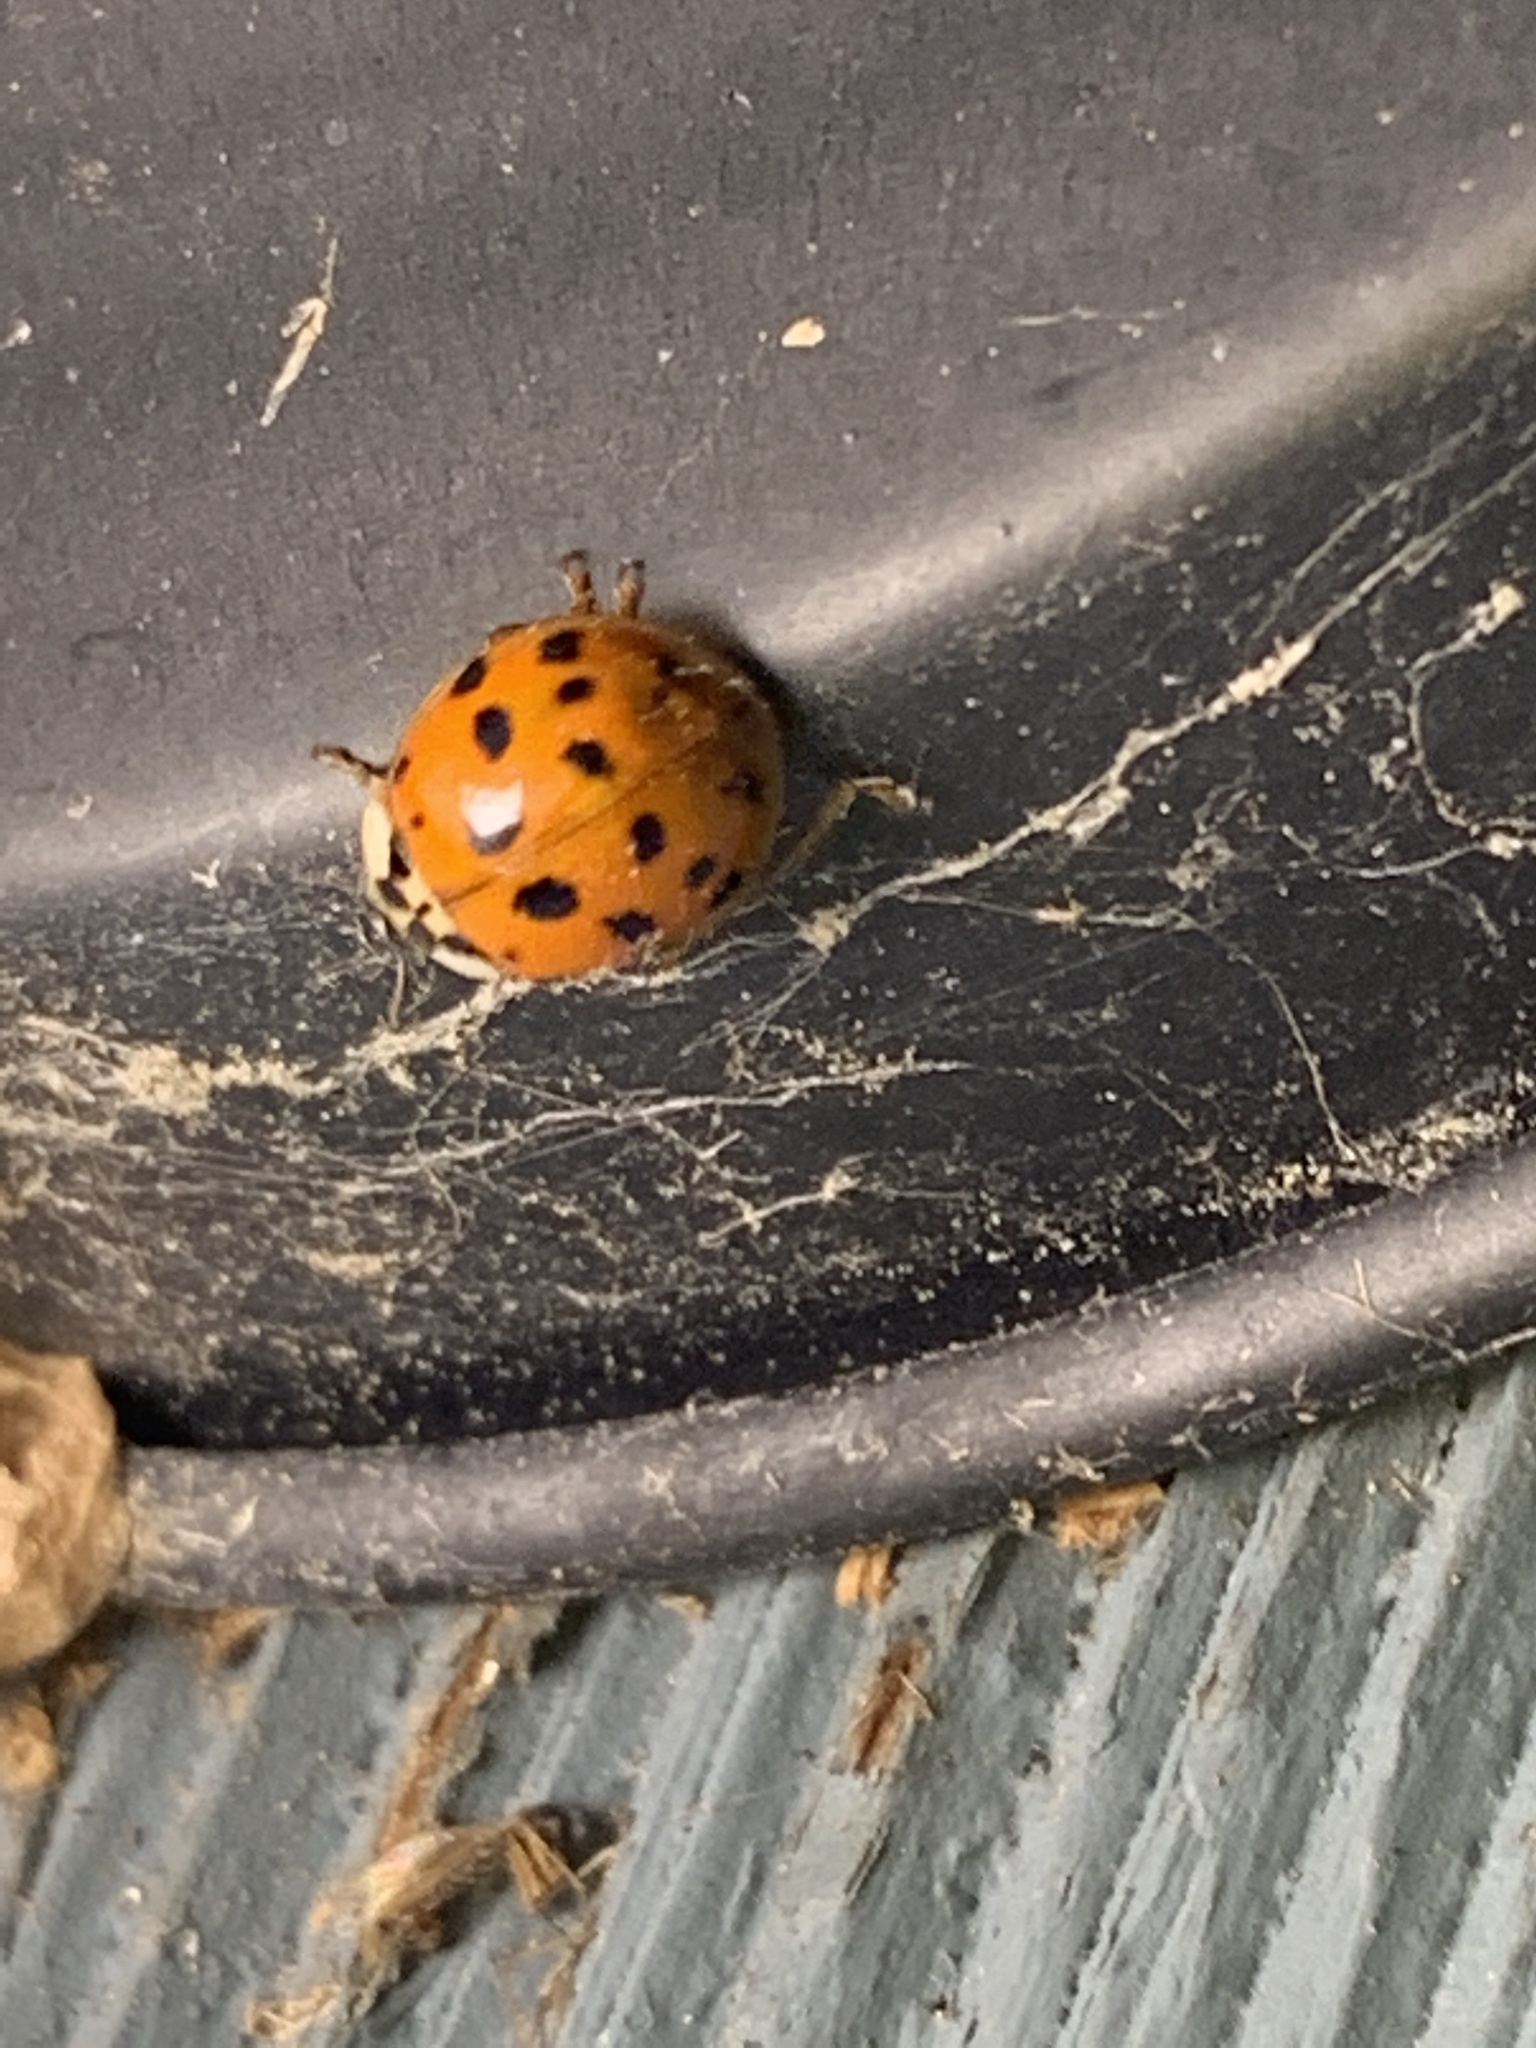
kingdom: Animalia
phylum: Arthropoda
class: Insecta
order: Coleoptera
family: Coccinellidae
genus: Harmonia
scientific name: Harmonia axyridis
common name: Harlequin ladybird
